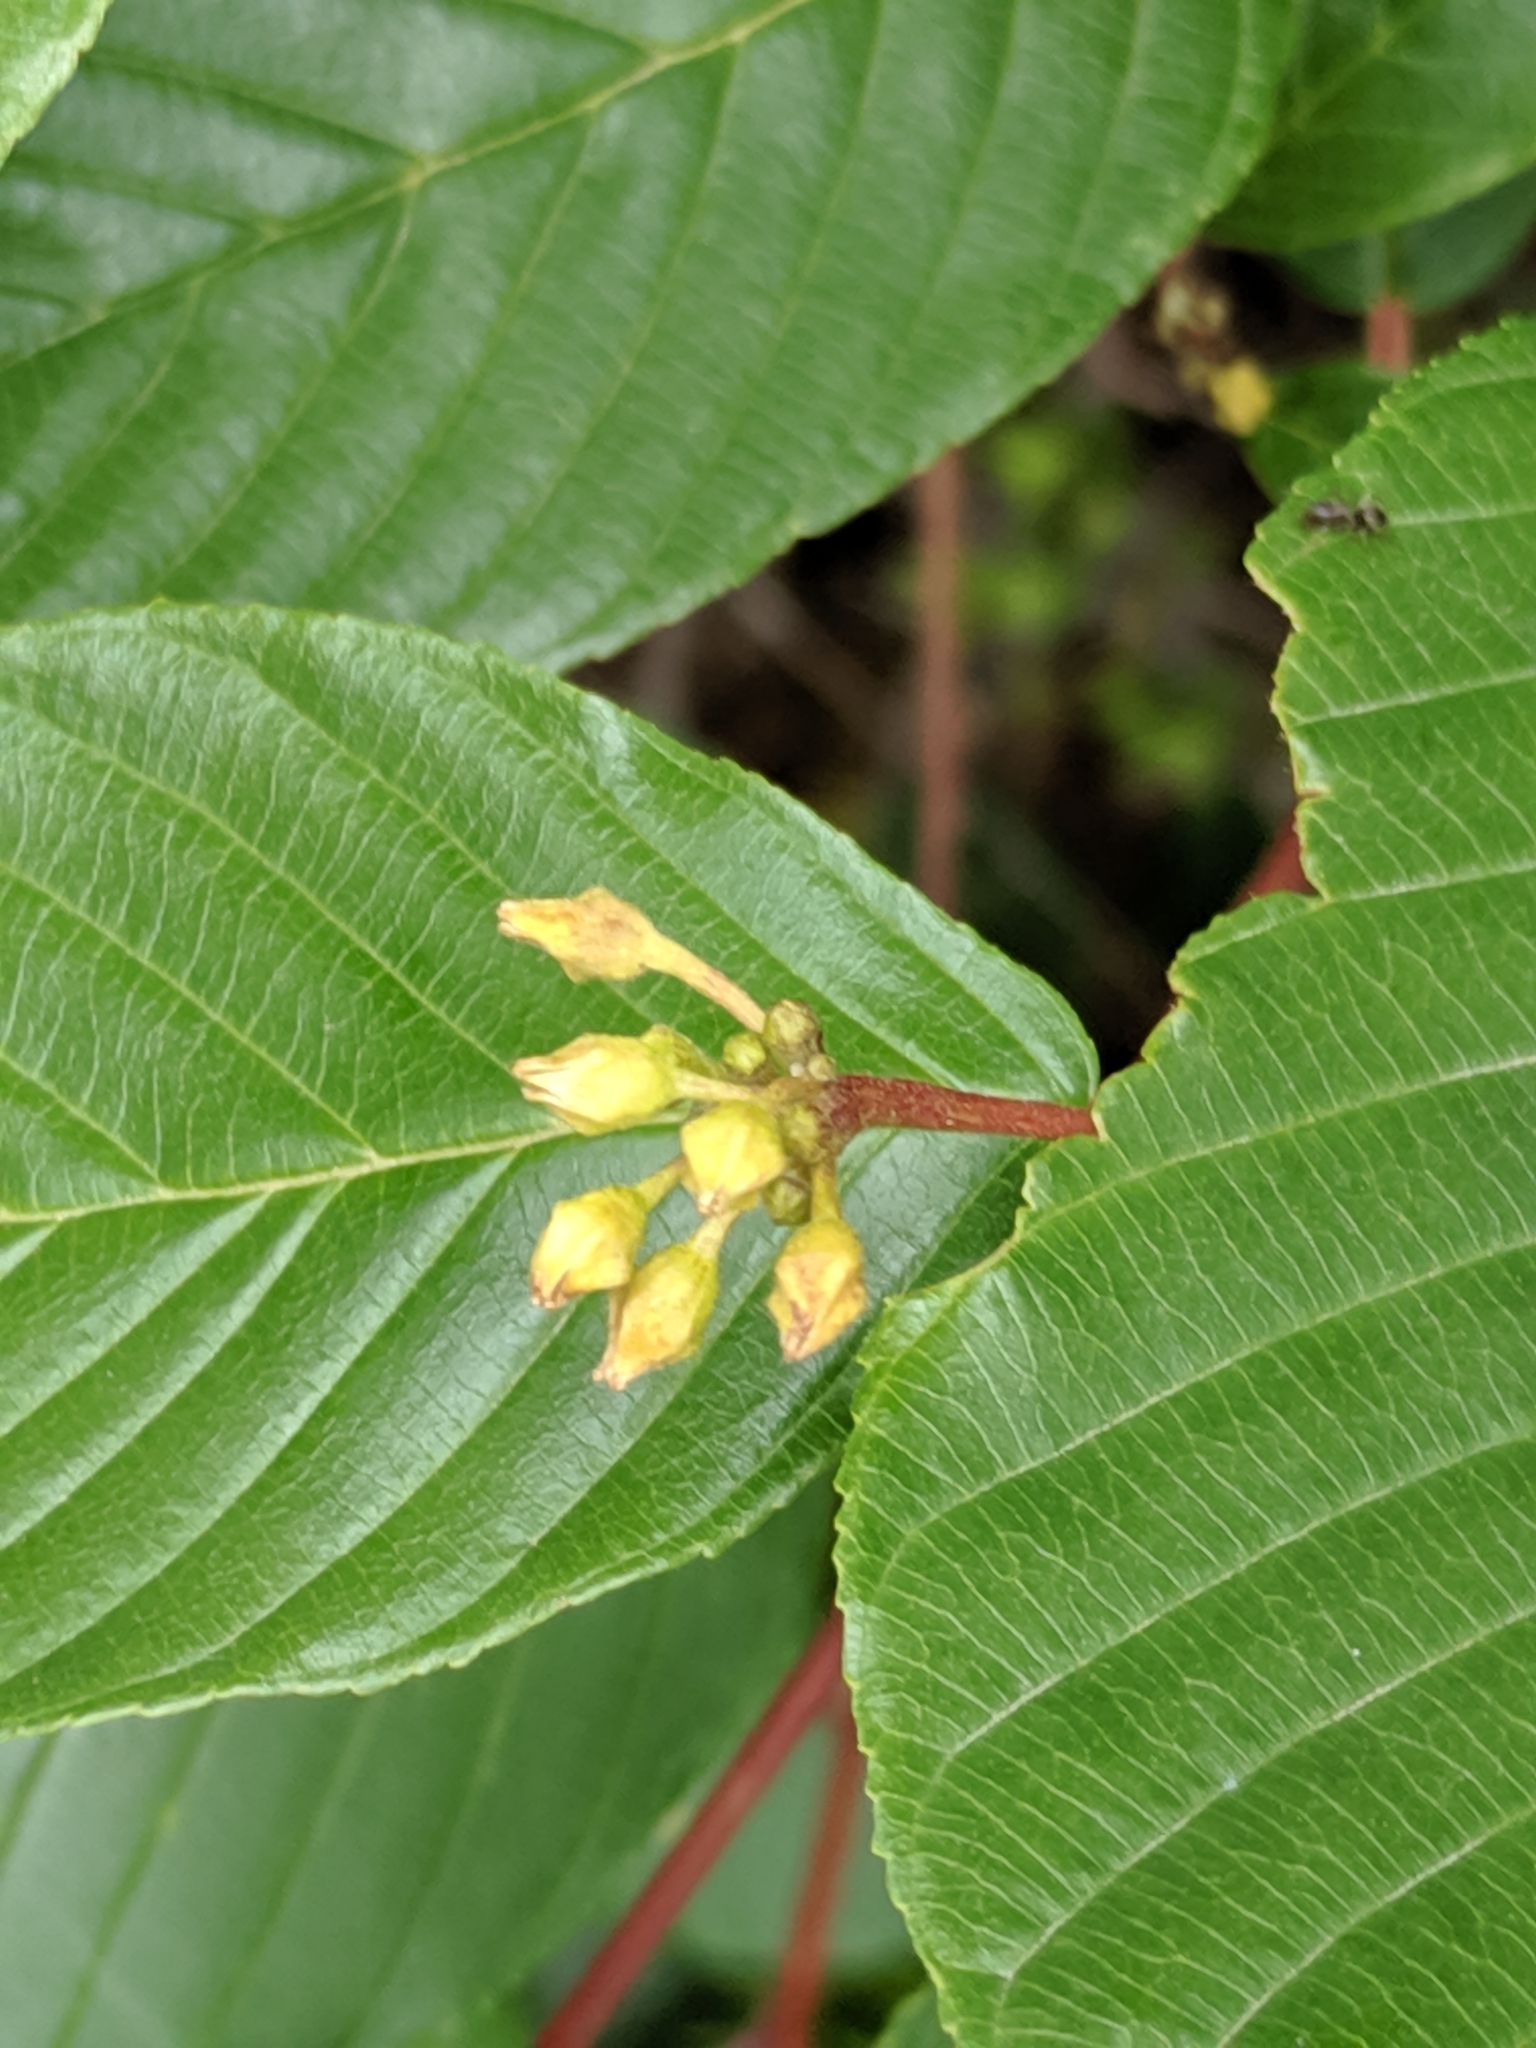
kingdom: Plantae
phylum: Tracheophyta
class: Magnoliopsida
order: Rosales
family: Rhamnaceae
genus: Frangula
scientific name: Frangula purshiana
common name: Cascara buckthorn
